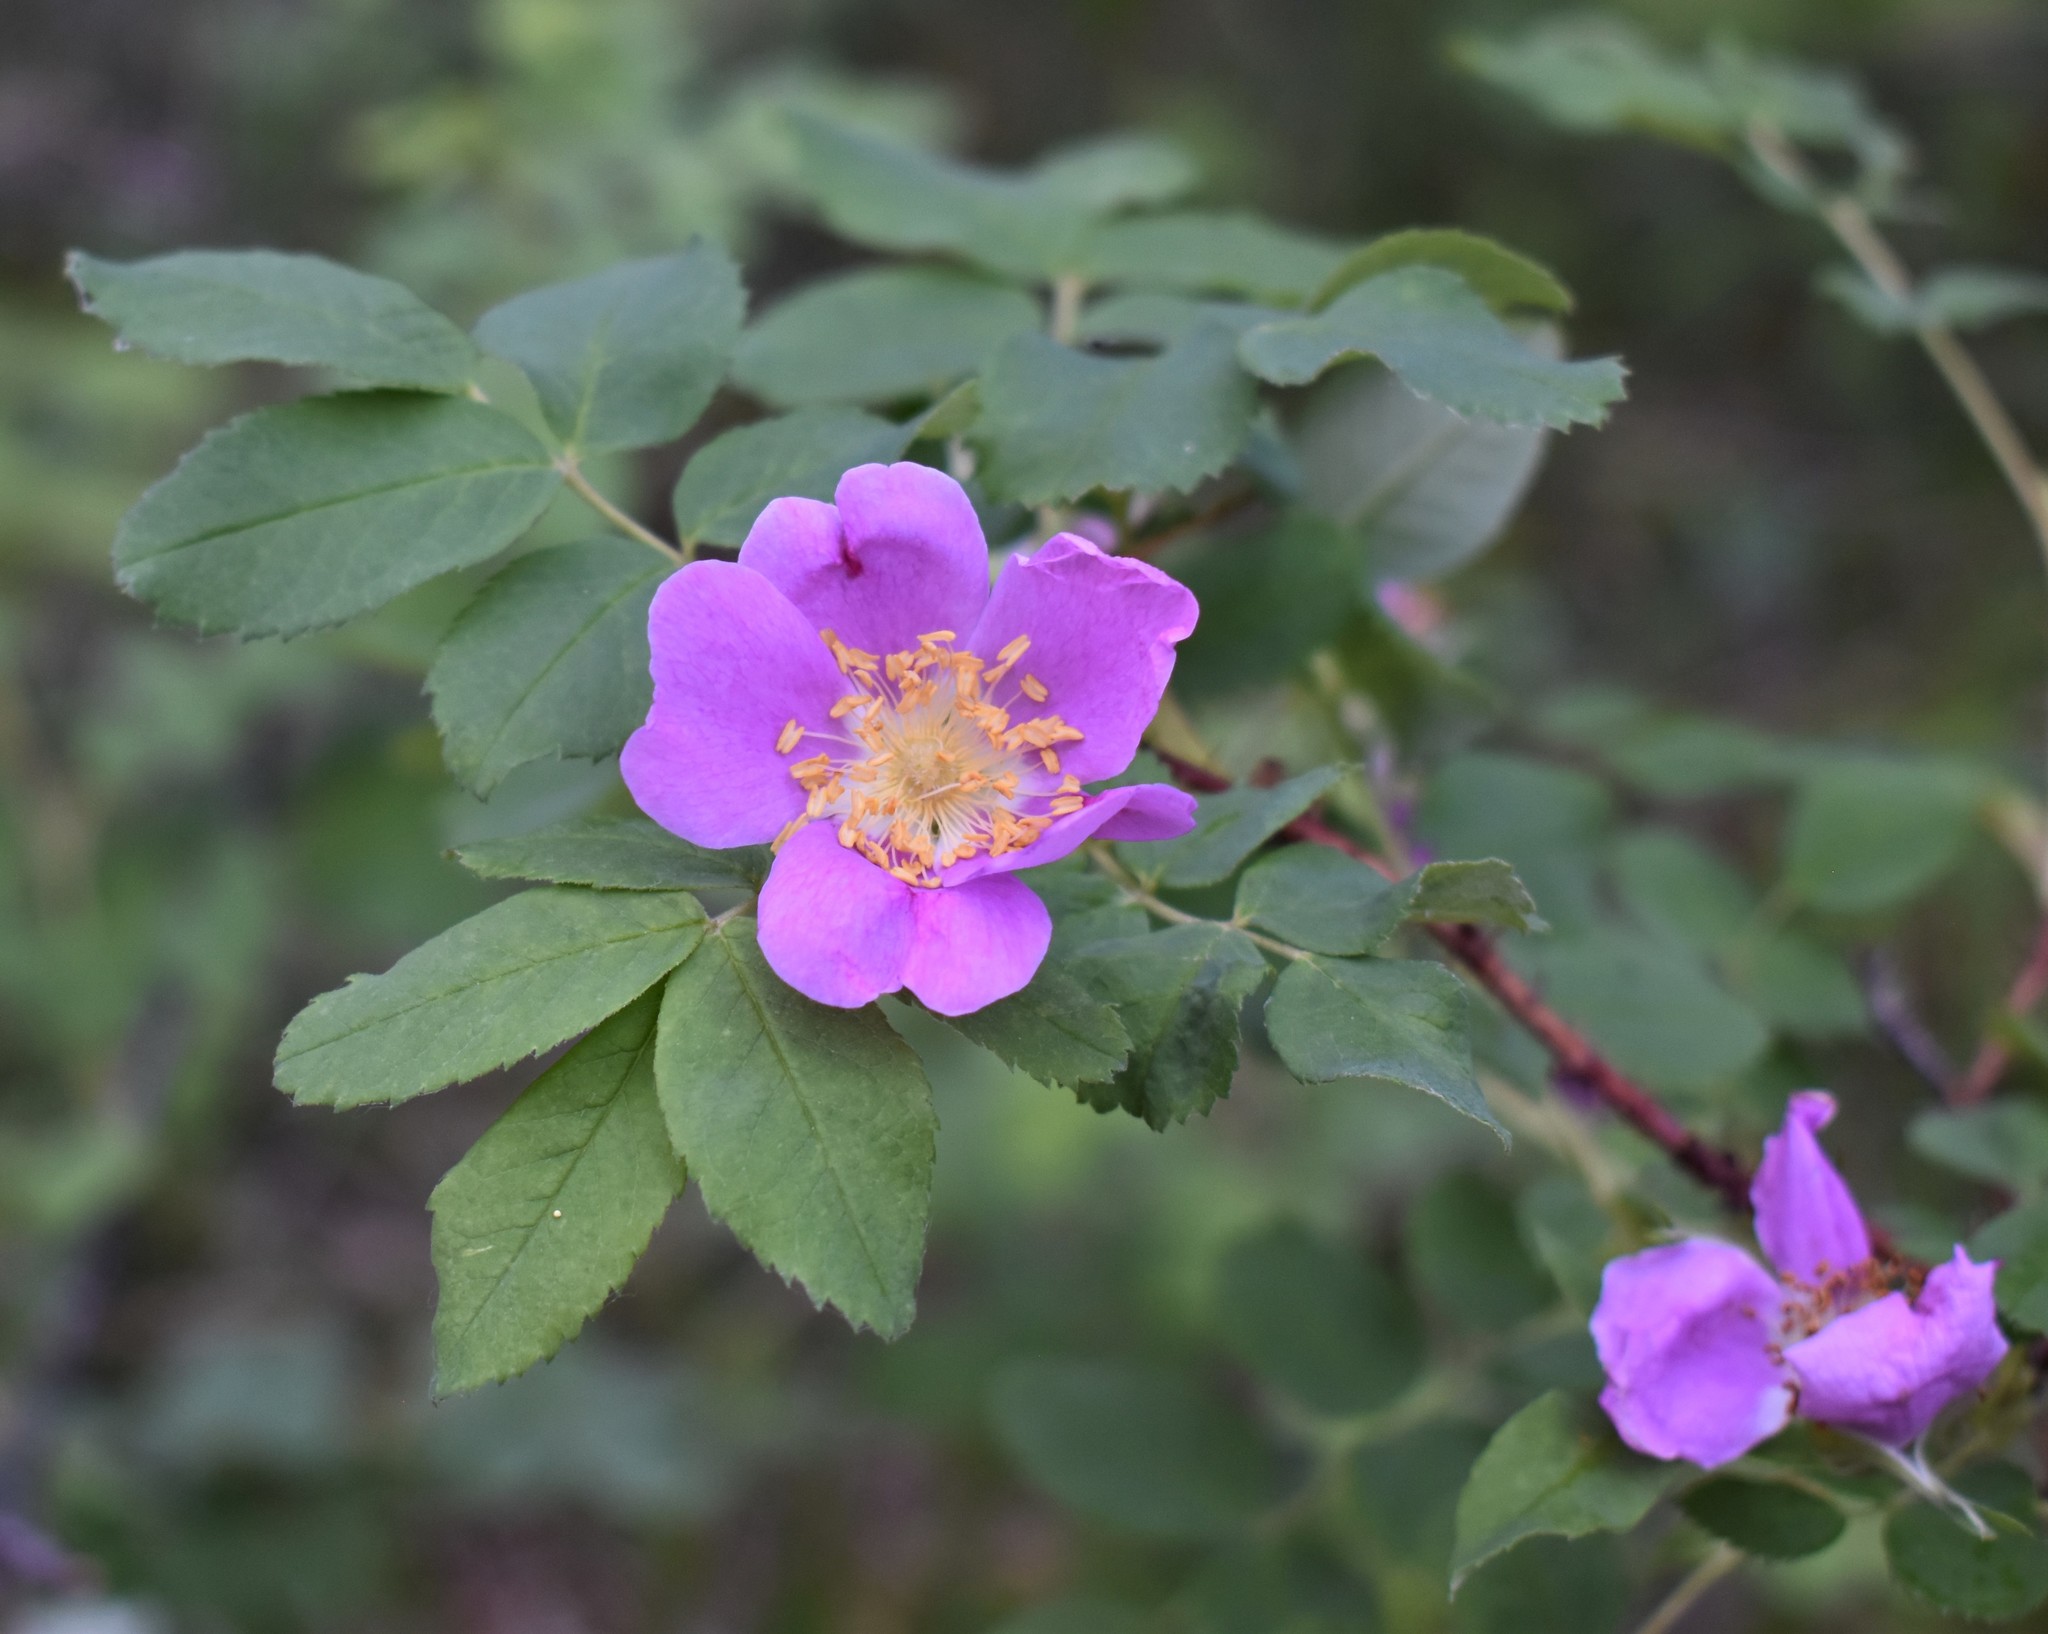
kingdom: Plantae
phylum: Tracheophyta
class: Magnoliopsida
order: Rosales
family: Rosaceae
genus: Rosa
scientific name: Rosa acicularis
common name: Prickly rose
